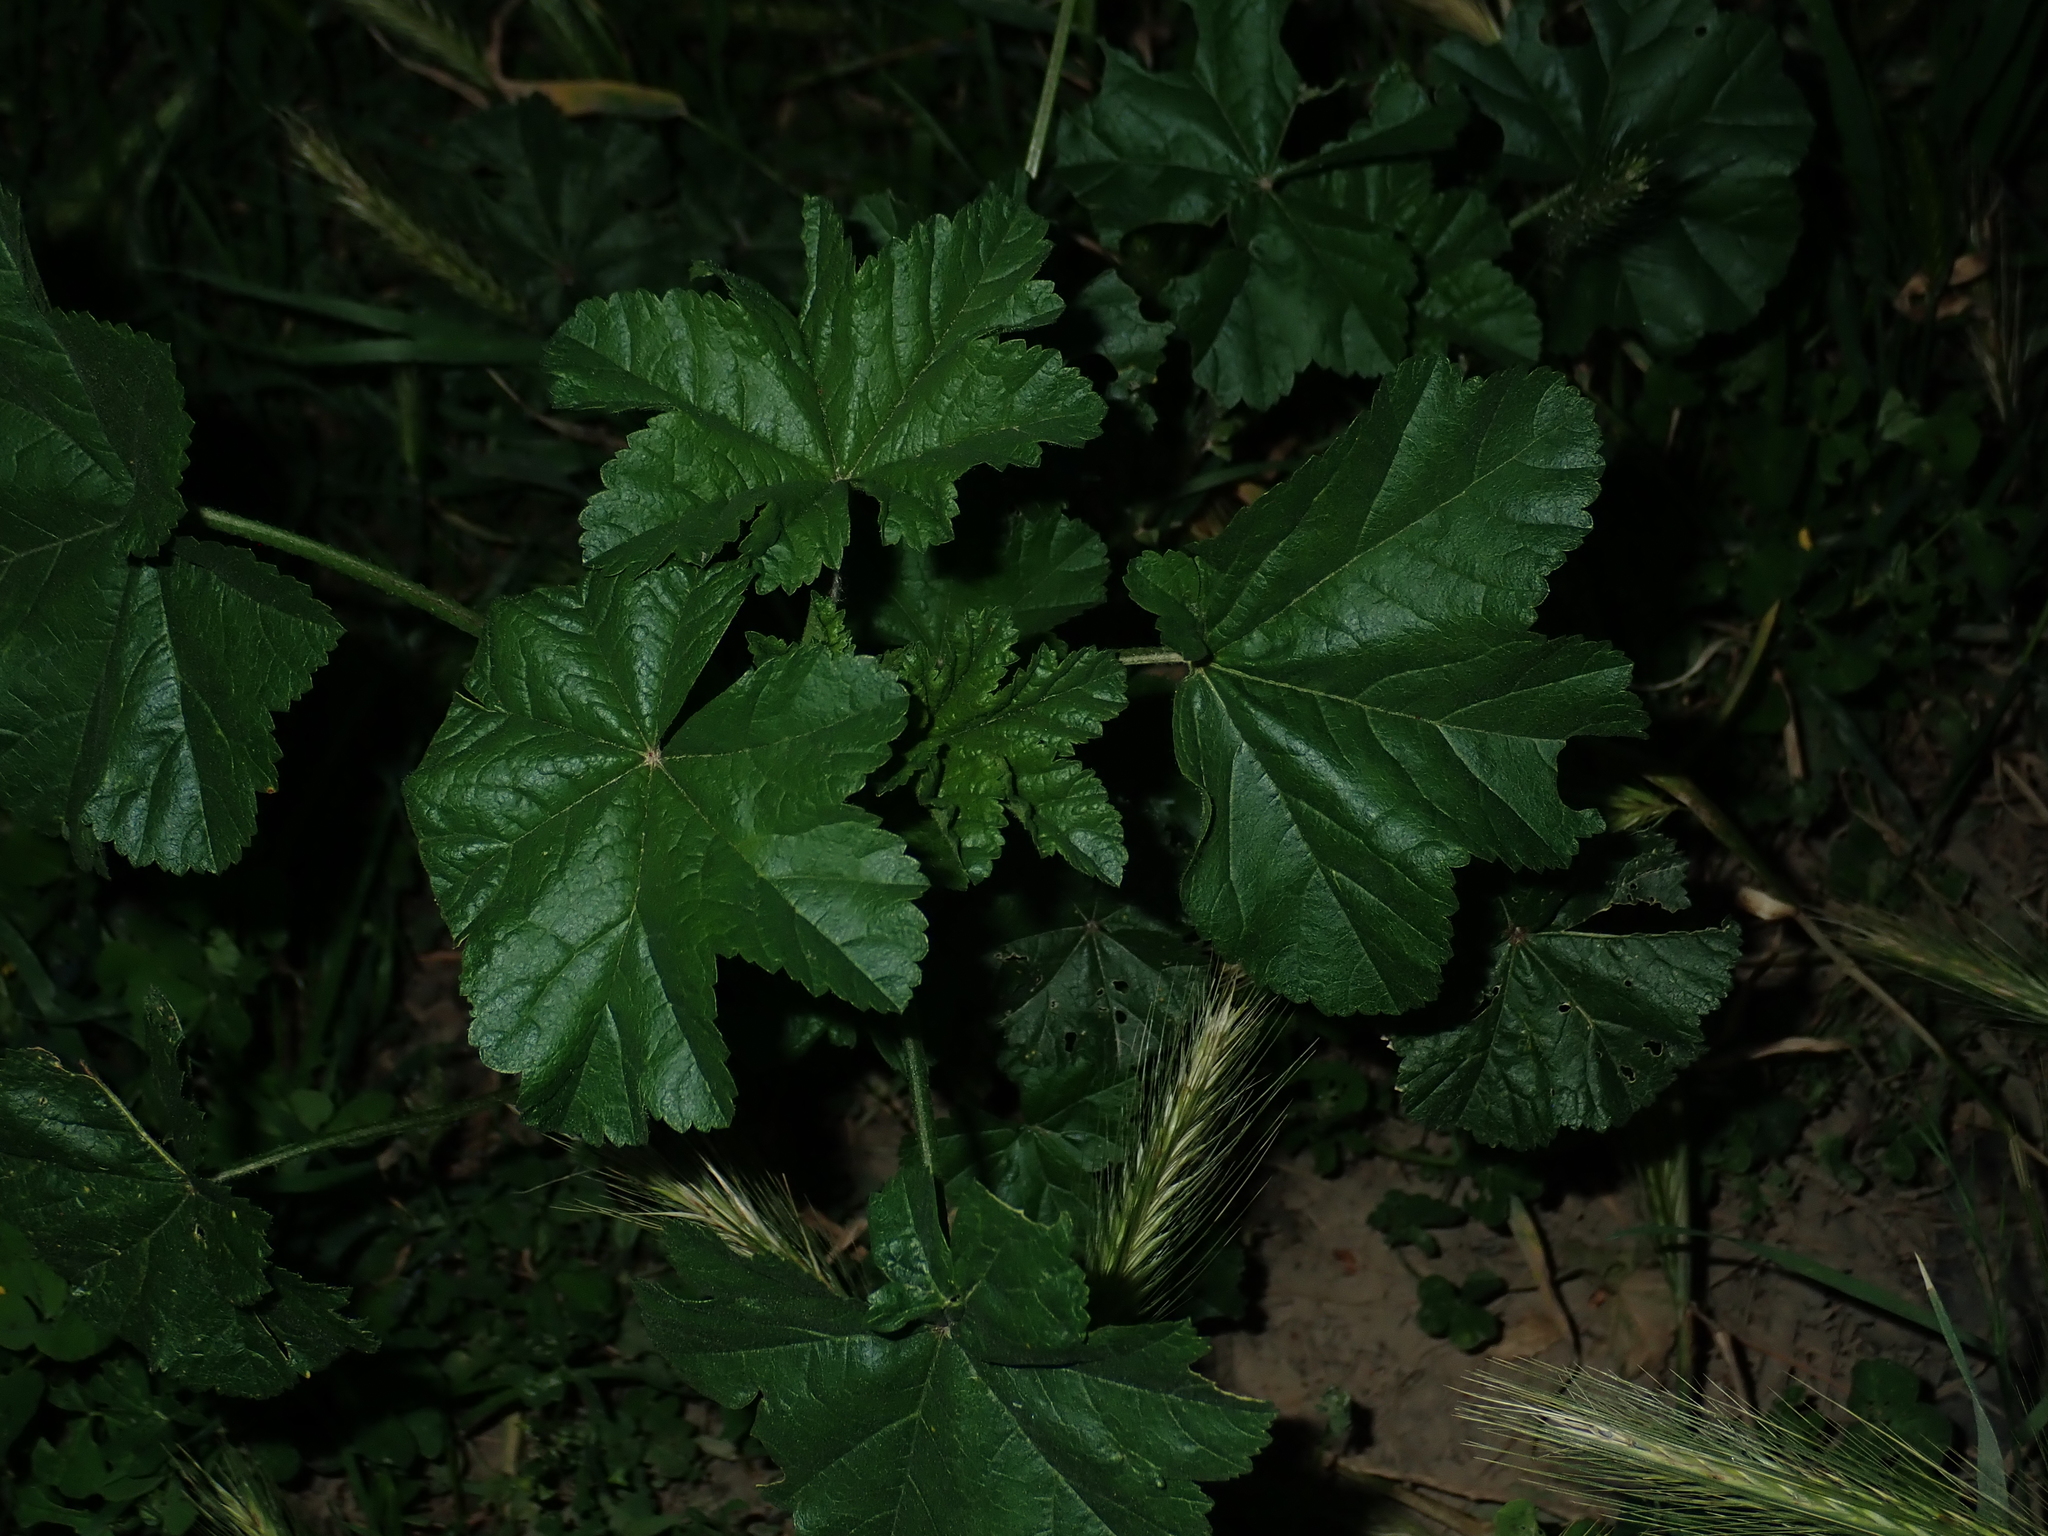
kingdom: Plantae
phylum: Tracheophyta
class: Magnoliopsida
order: Malvales
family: Malvaceae
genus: Malva
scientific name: Malva sylvestris
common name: Common mallow
